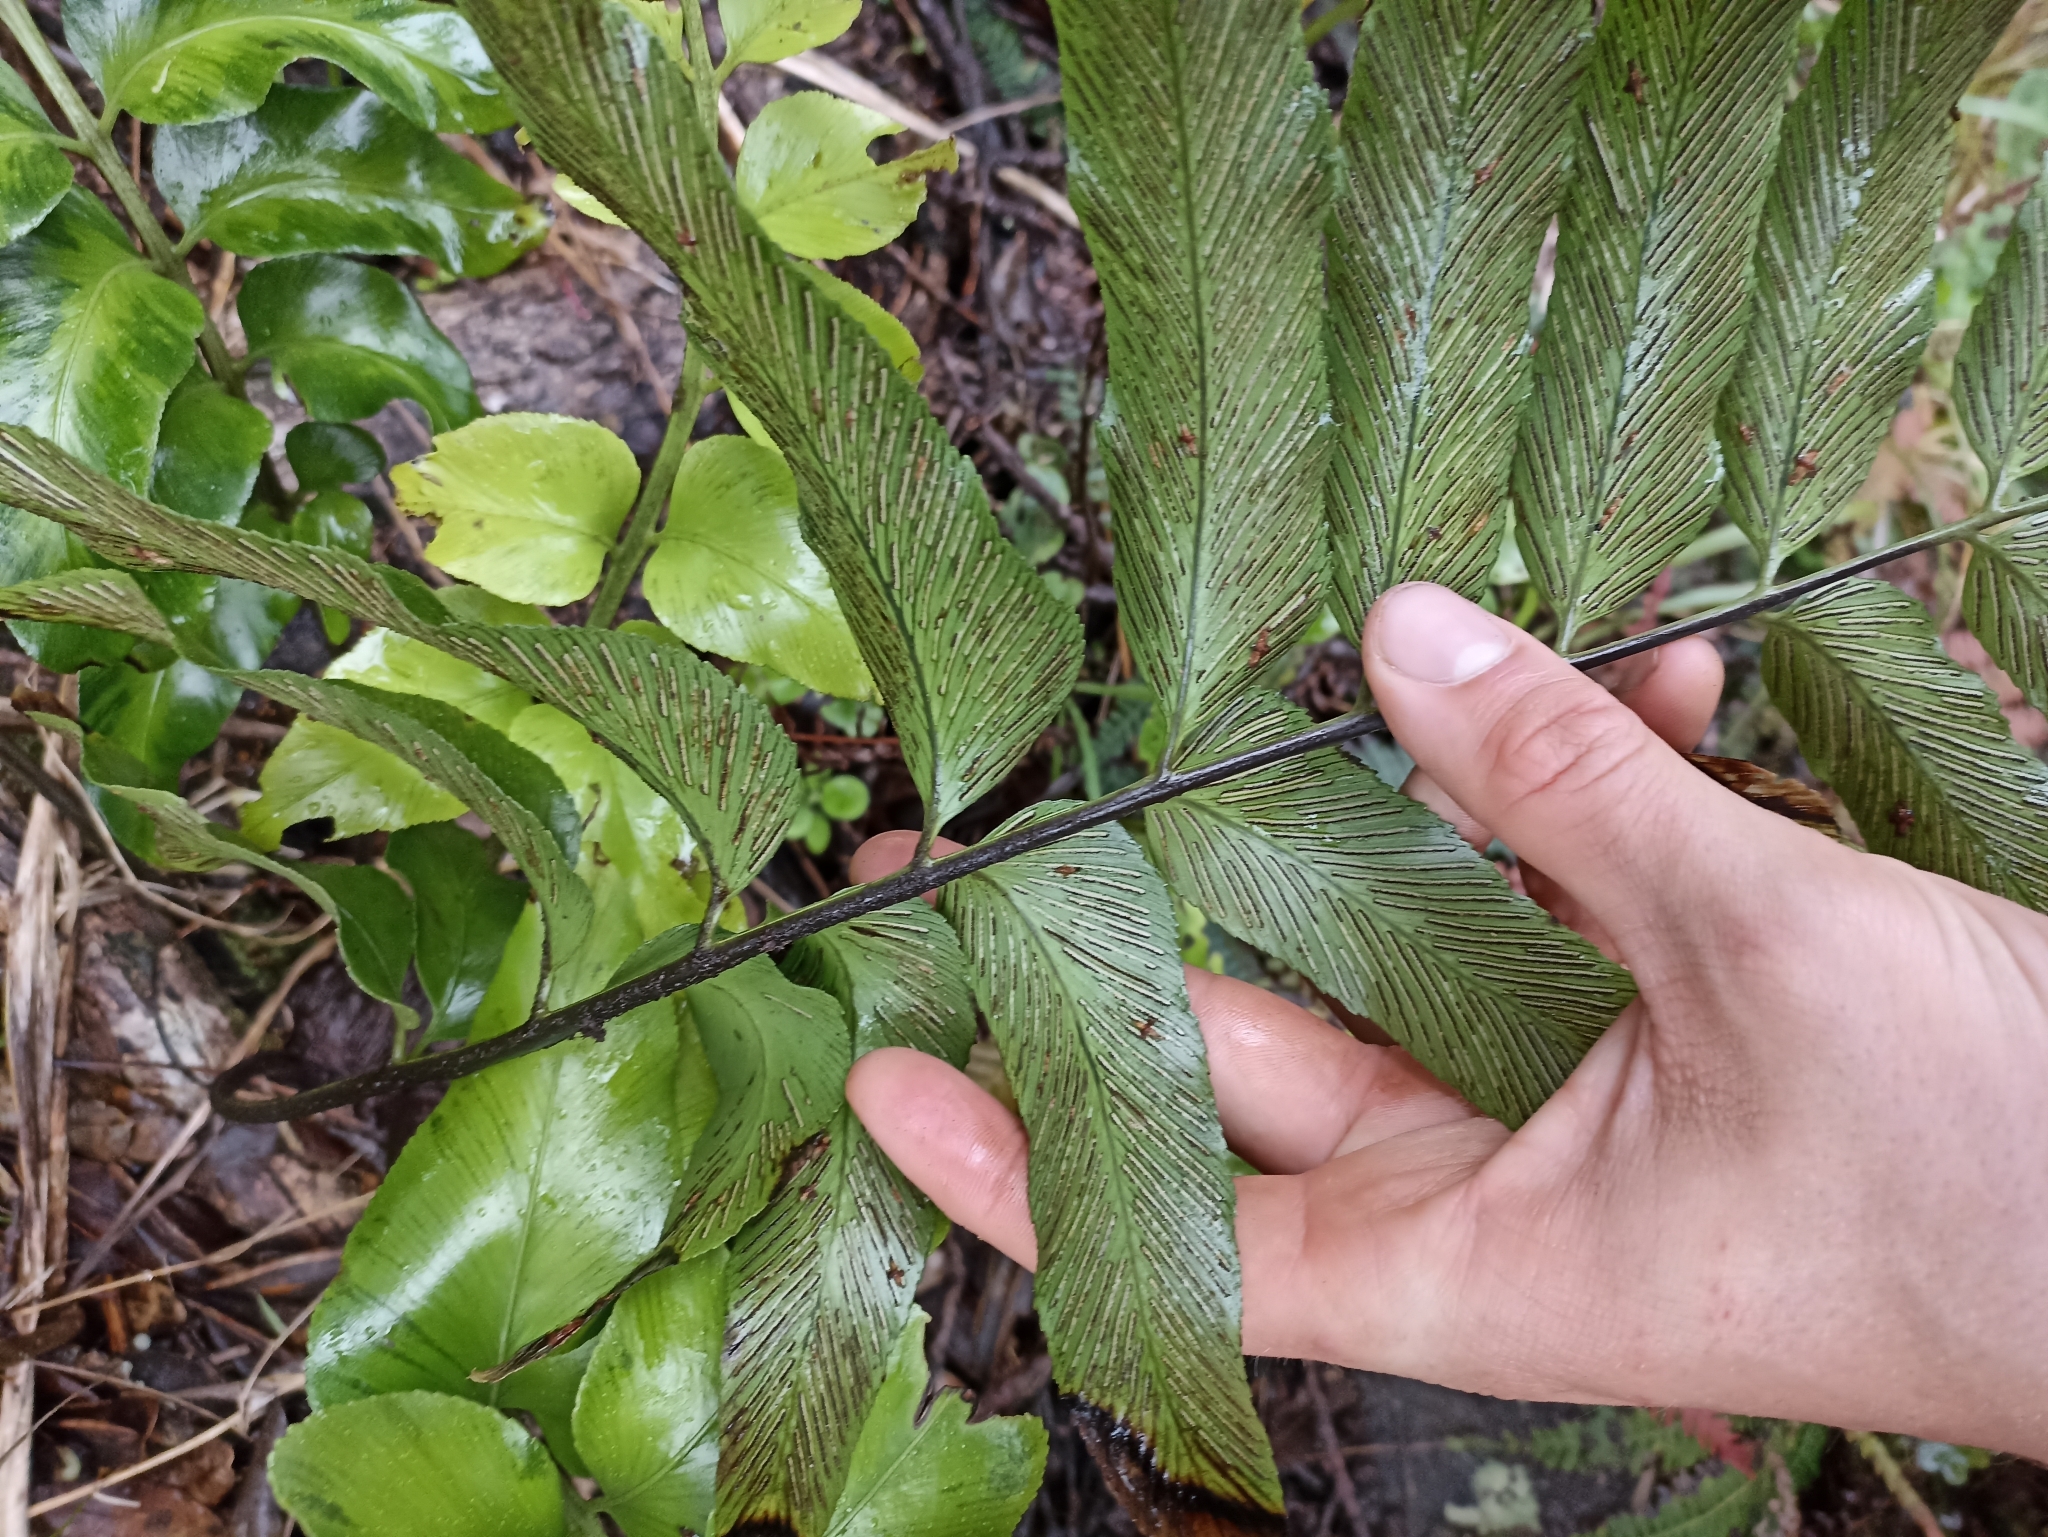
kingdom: Plantae
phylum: Tracheophyta
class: Polypodiopsida
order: Polypodiales
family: Aspleniaceae
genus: Asplenium
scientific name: Asplenium oblongifolium
